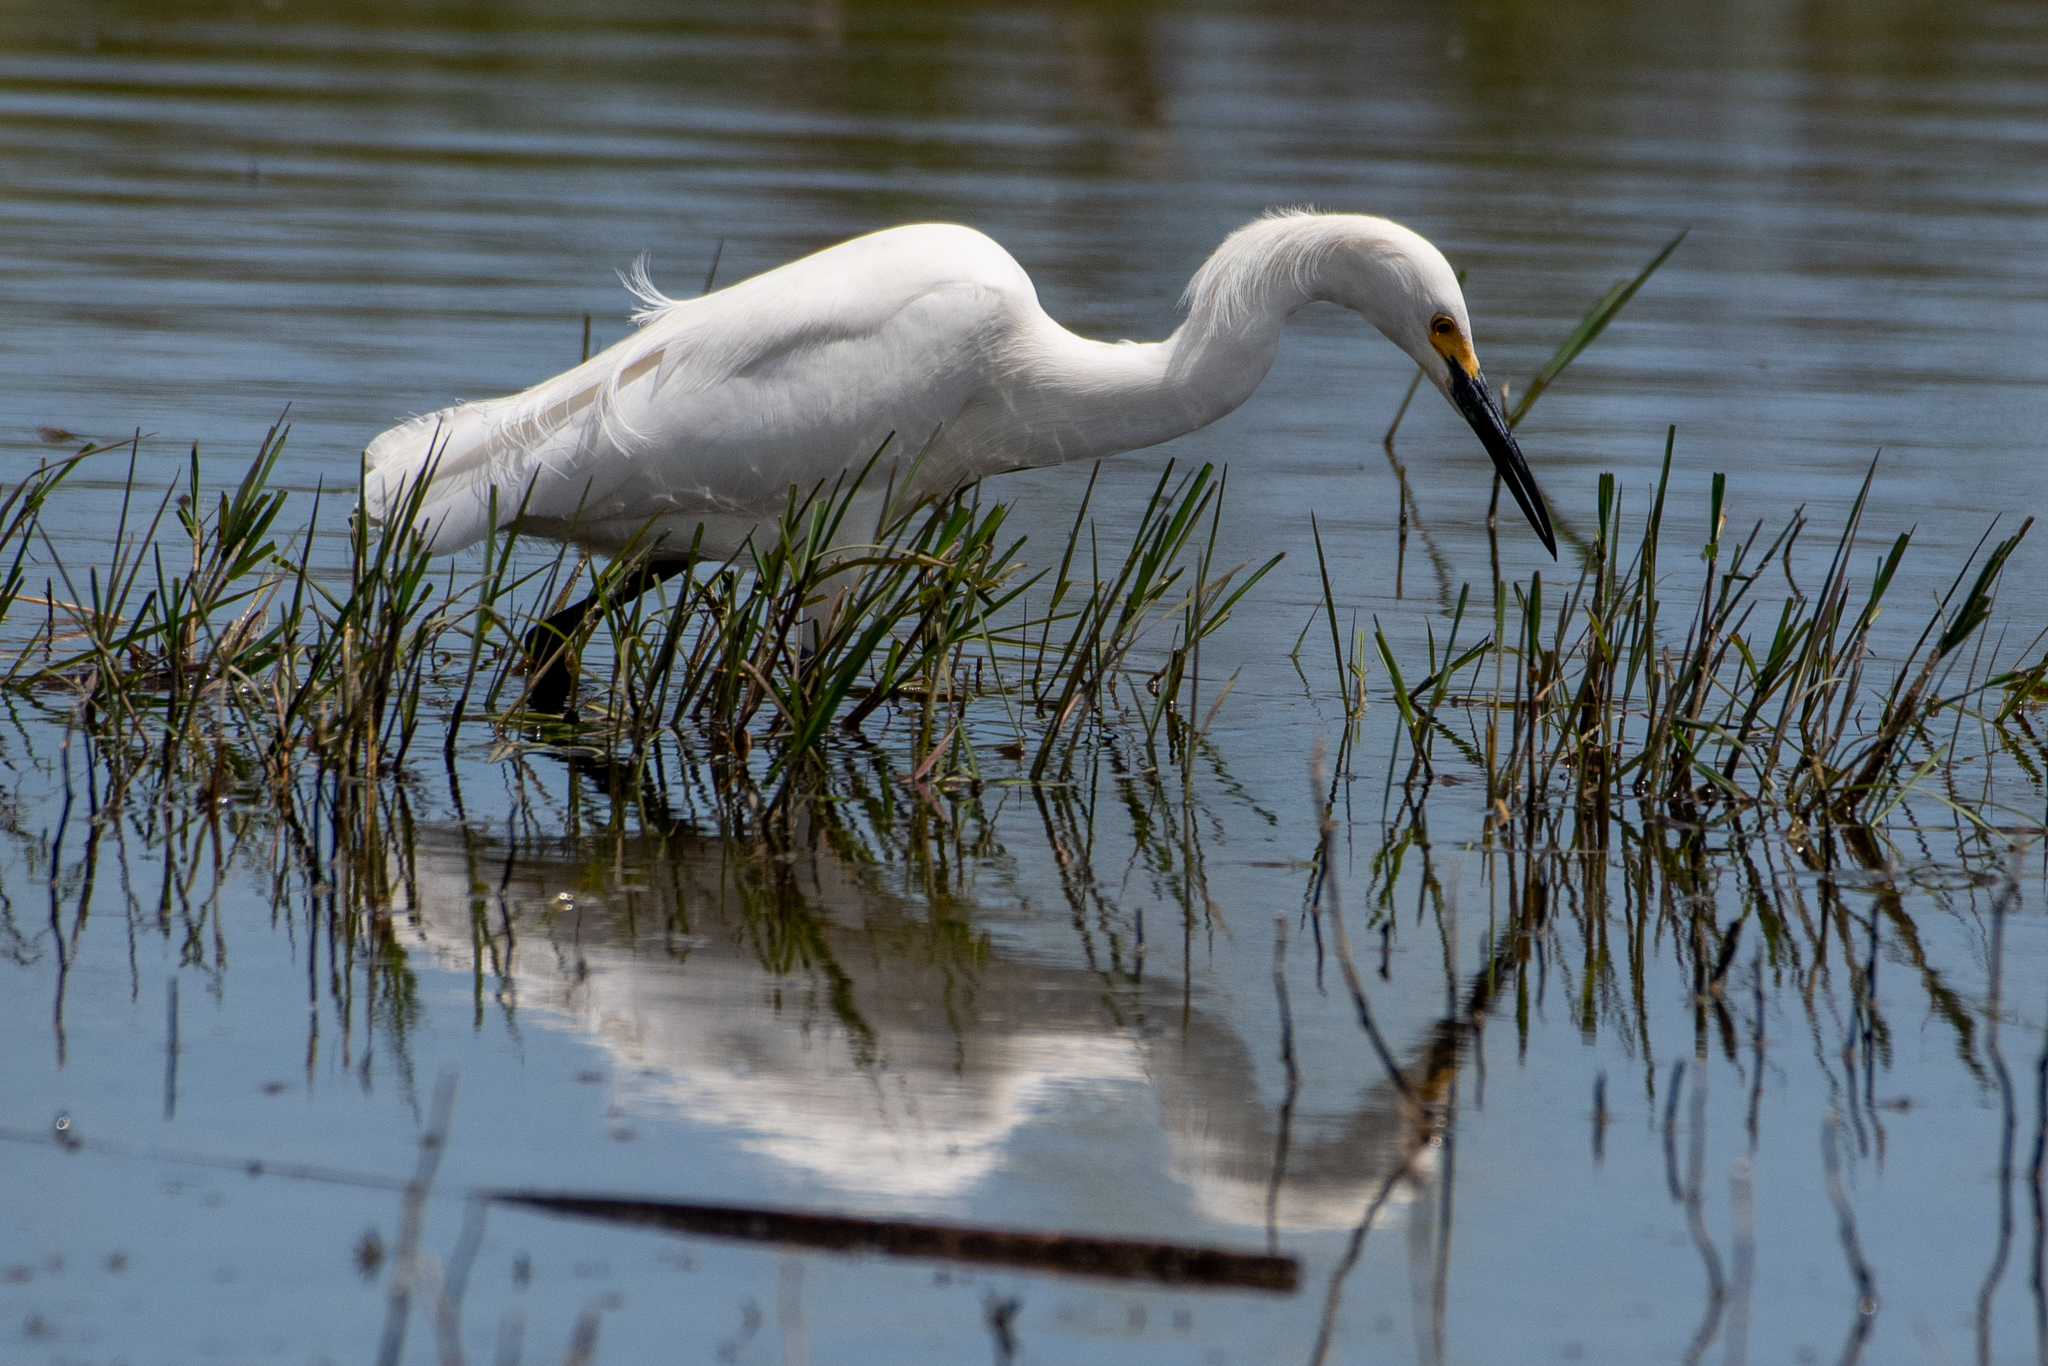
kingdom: Animalia
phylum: Chordata
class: Aves
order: Pelecaniformes
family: Ardeidae
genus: Egretta
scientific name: Egretta thula
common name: Snowy egret
